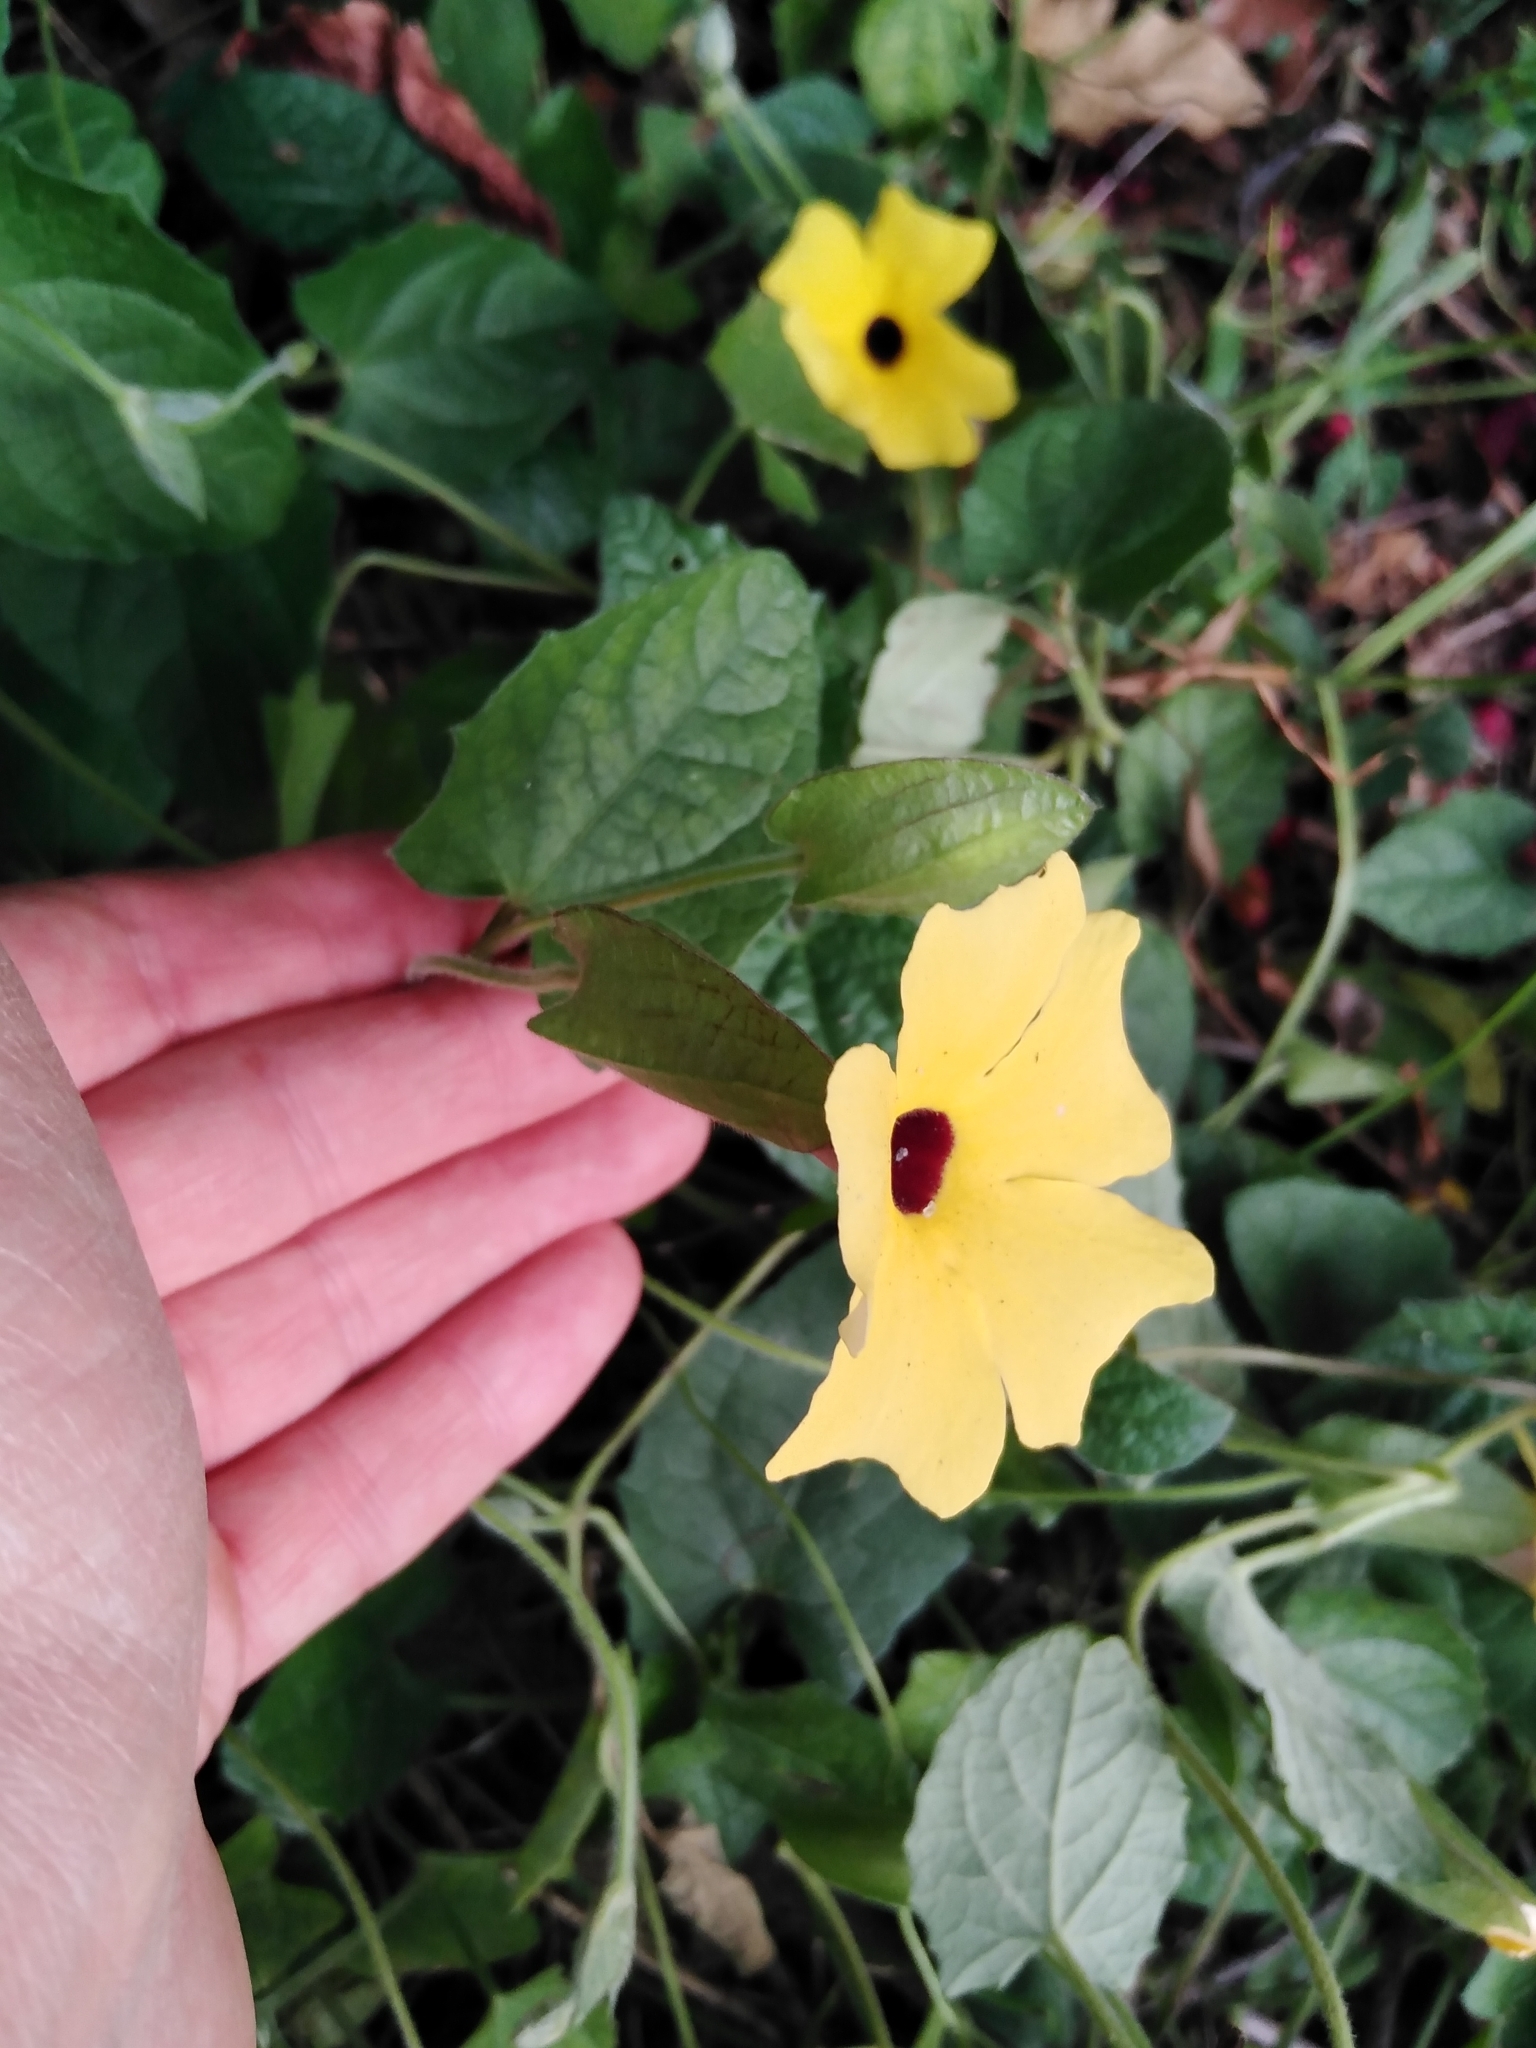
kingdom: Plantae
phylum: Tracheophyta
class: Magnoliopsida
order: Lamiales
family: Acanthaceae
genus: Thunbergia
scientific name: Thunbergia alata
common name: Blackeyed susan vine
